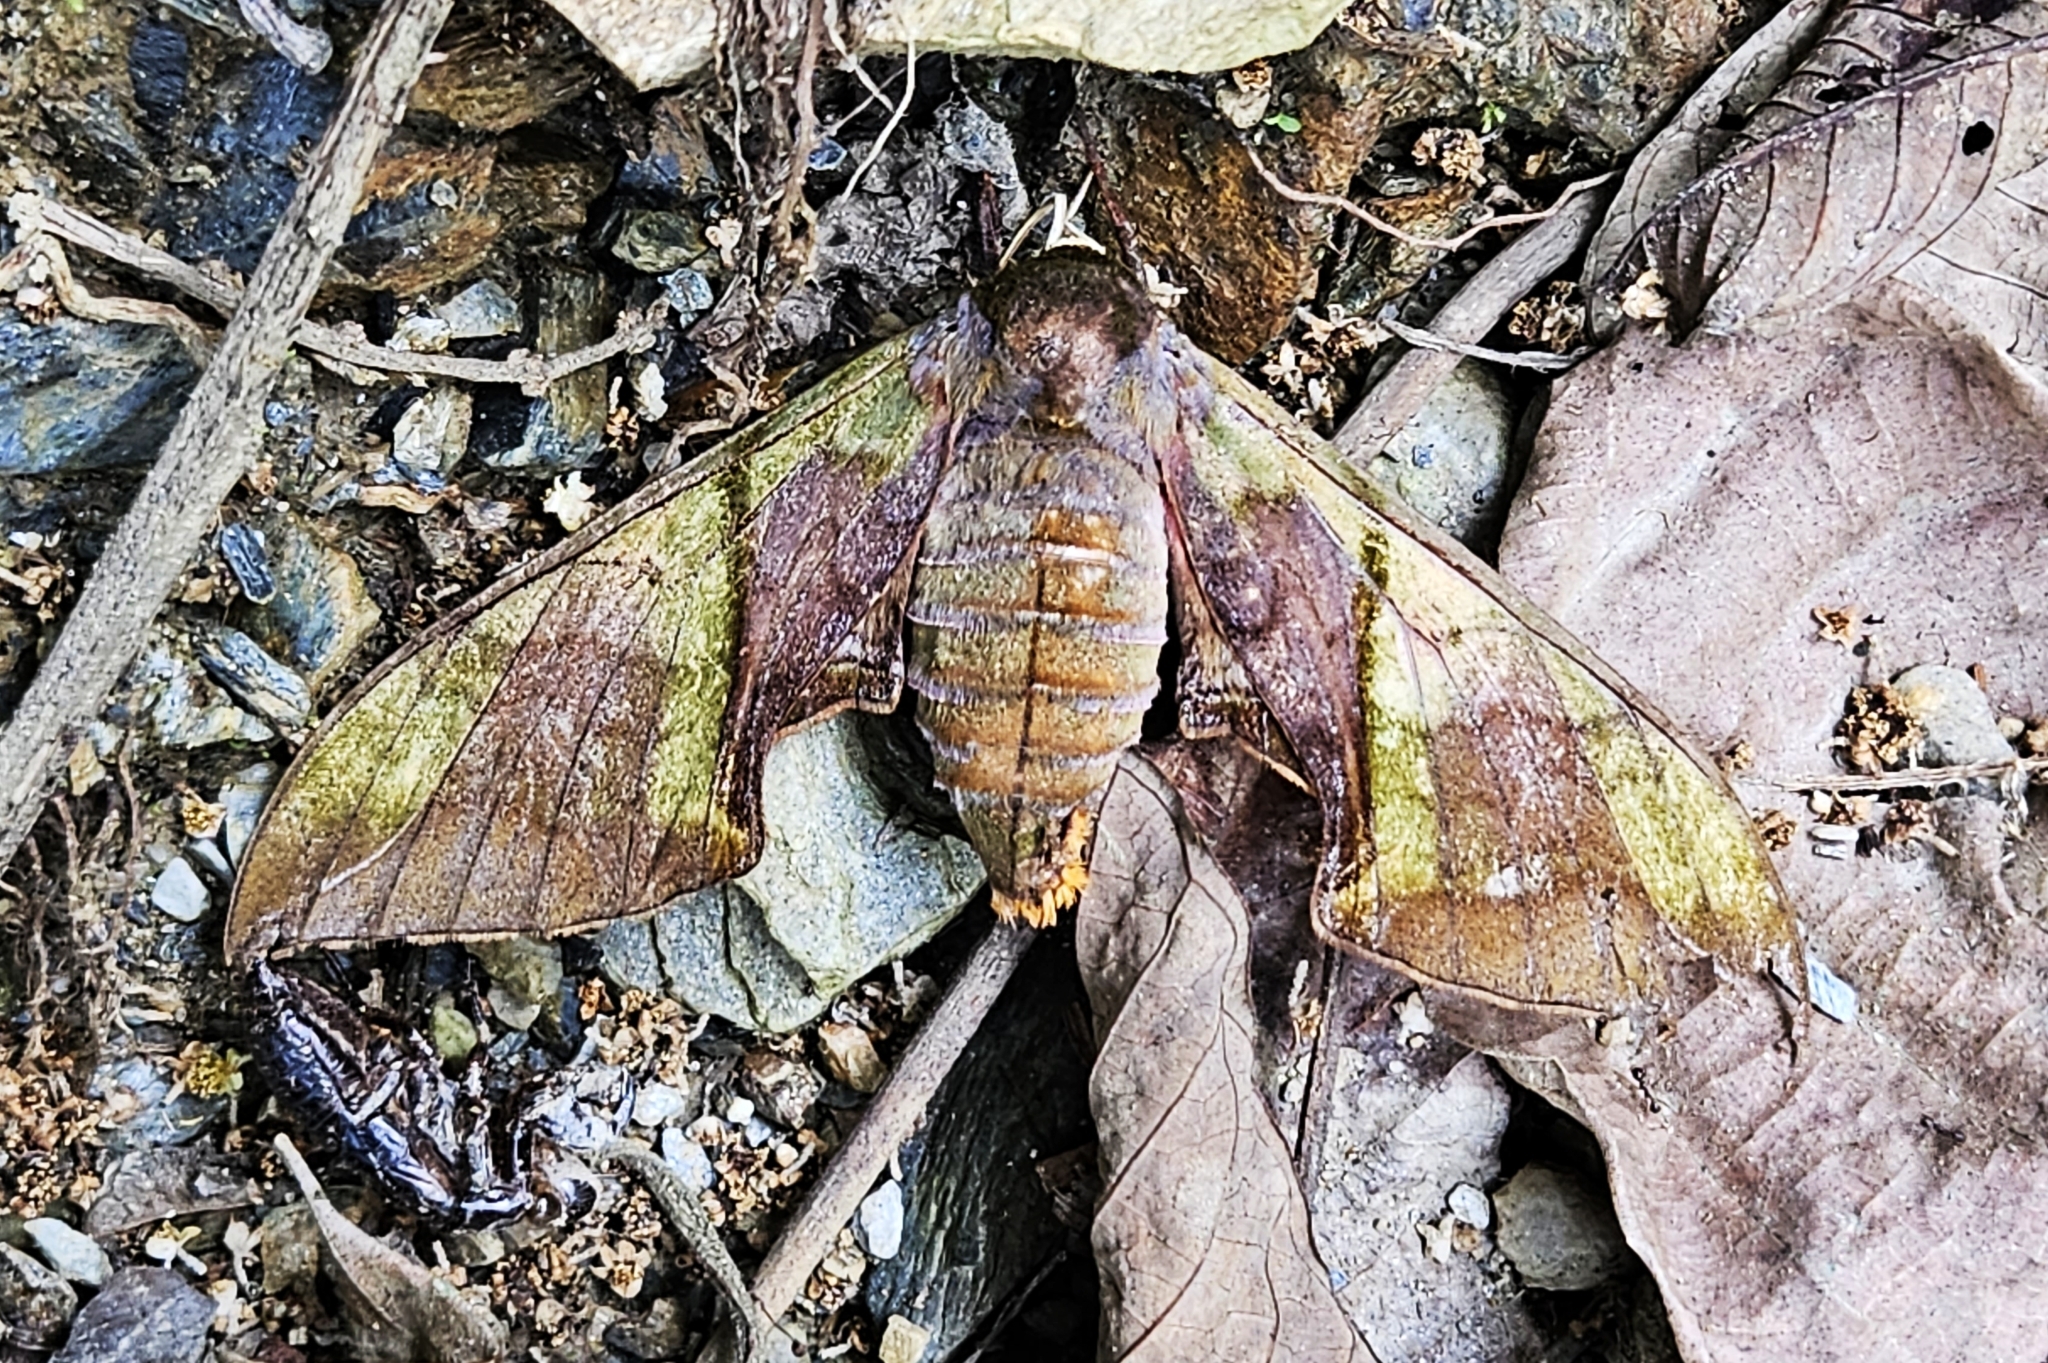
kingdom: Animalia
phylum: Arthropoda
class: Insecta
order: Lepidoptera
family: Sphingidae
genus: Callambulyx
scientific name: Callambulyx rubricosa
